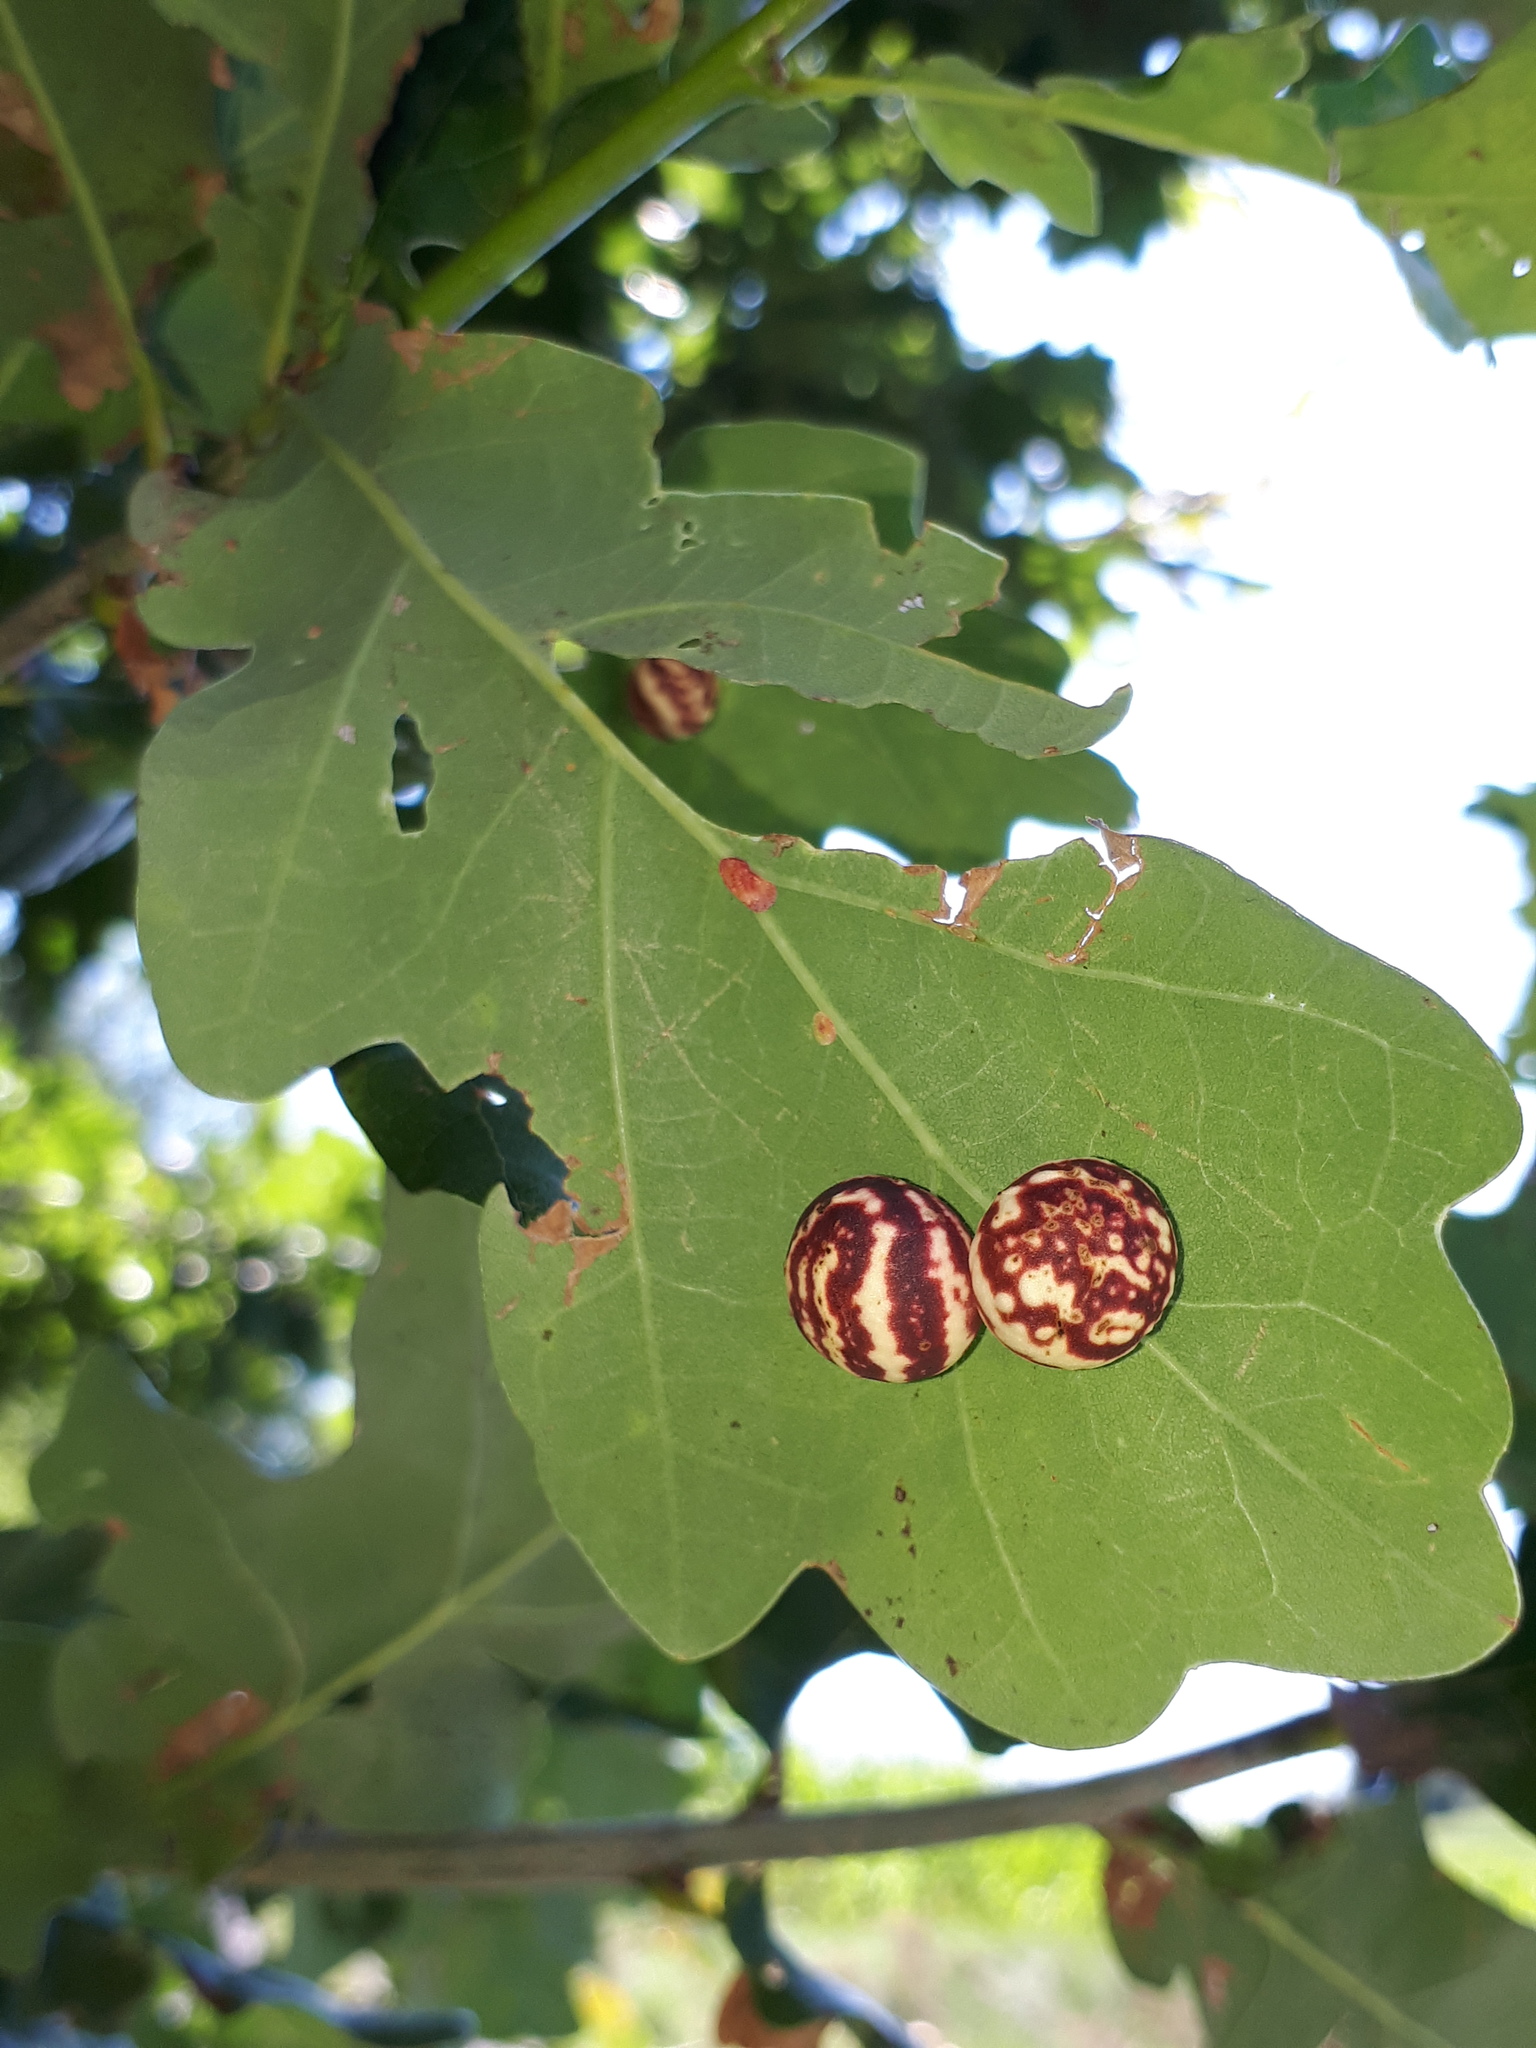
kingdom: Animalia
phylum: Arthropoda
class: Insecta
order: Hymenoptera
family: Cynipidae
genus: Cynips
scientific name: Cynips longiventris
